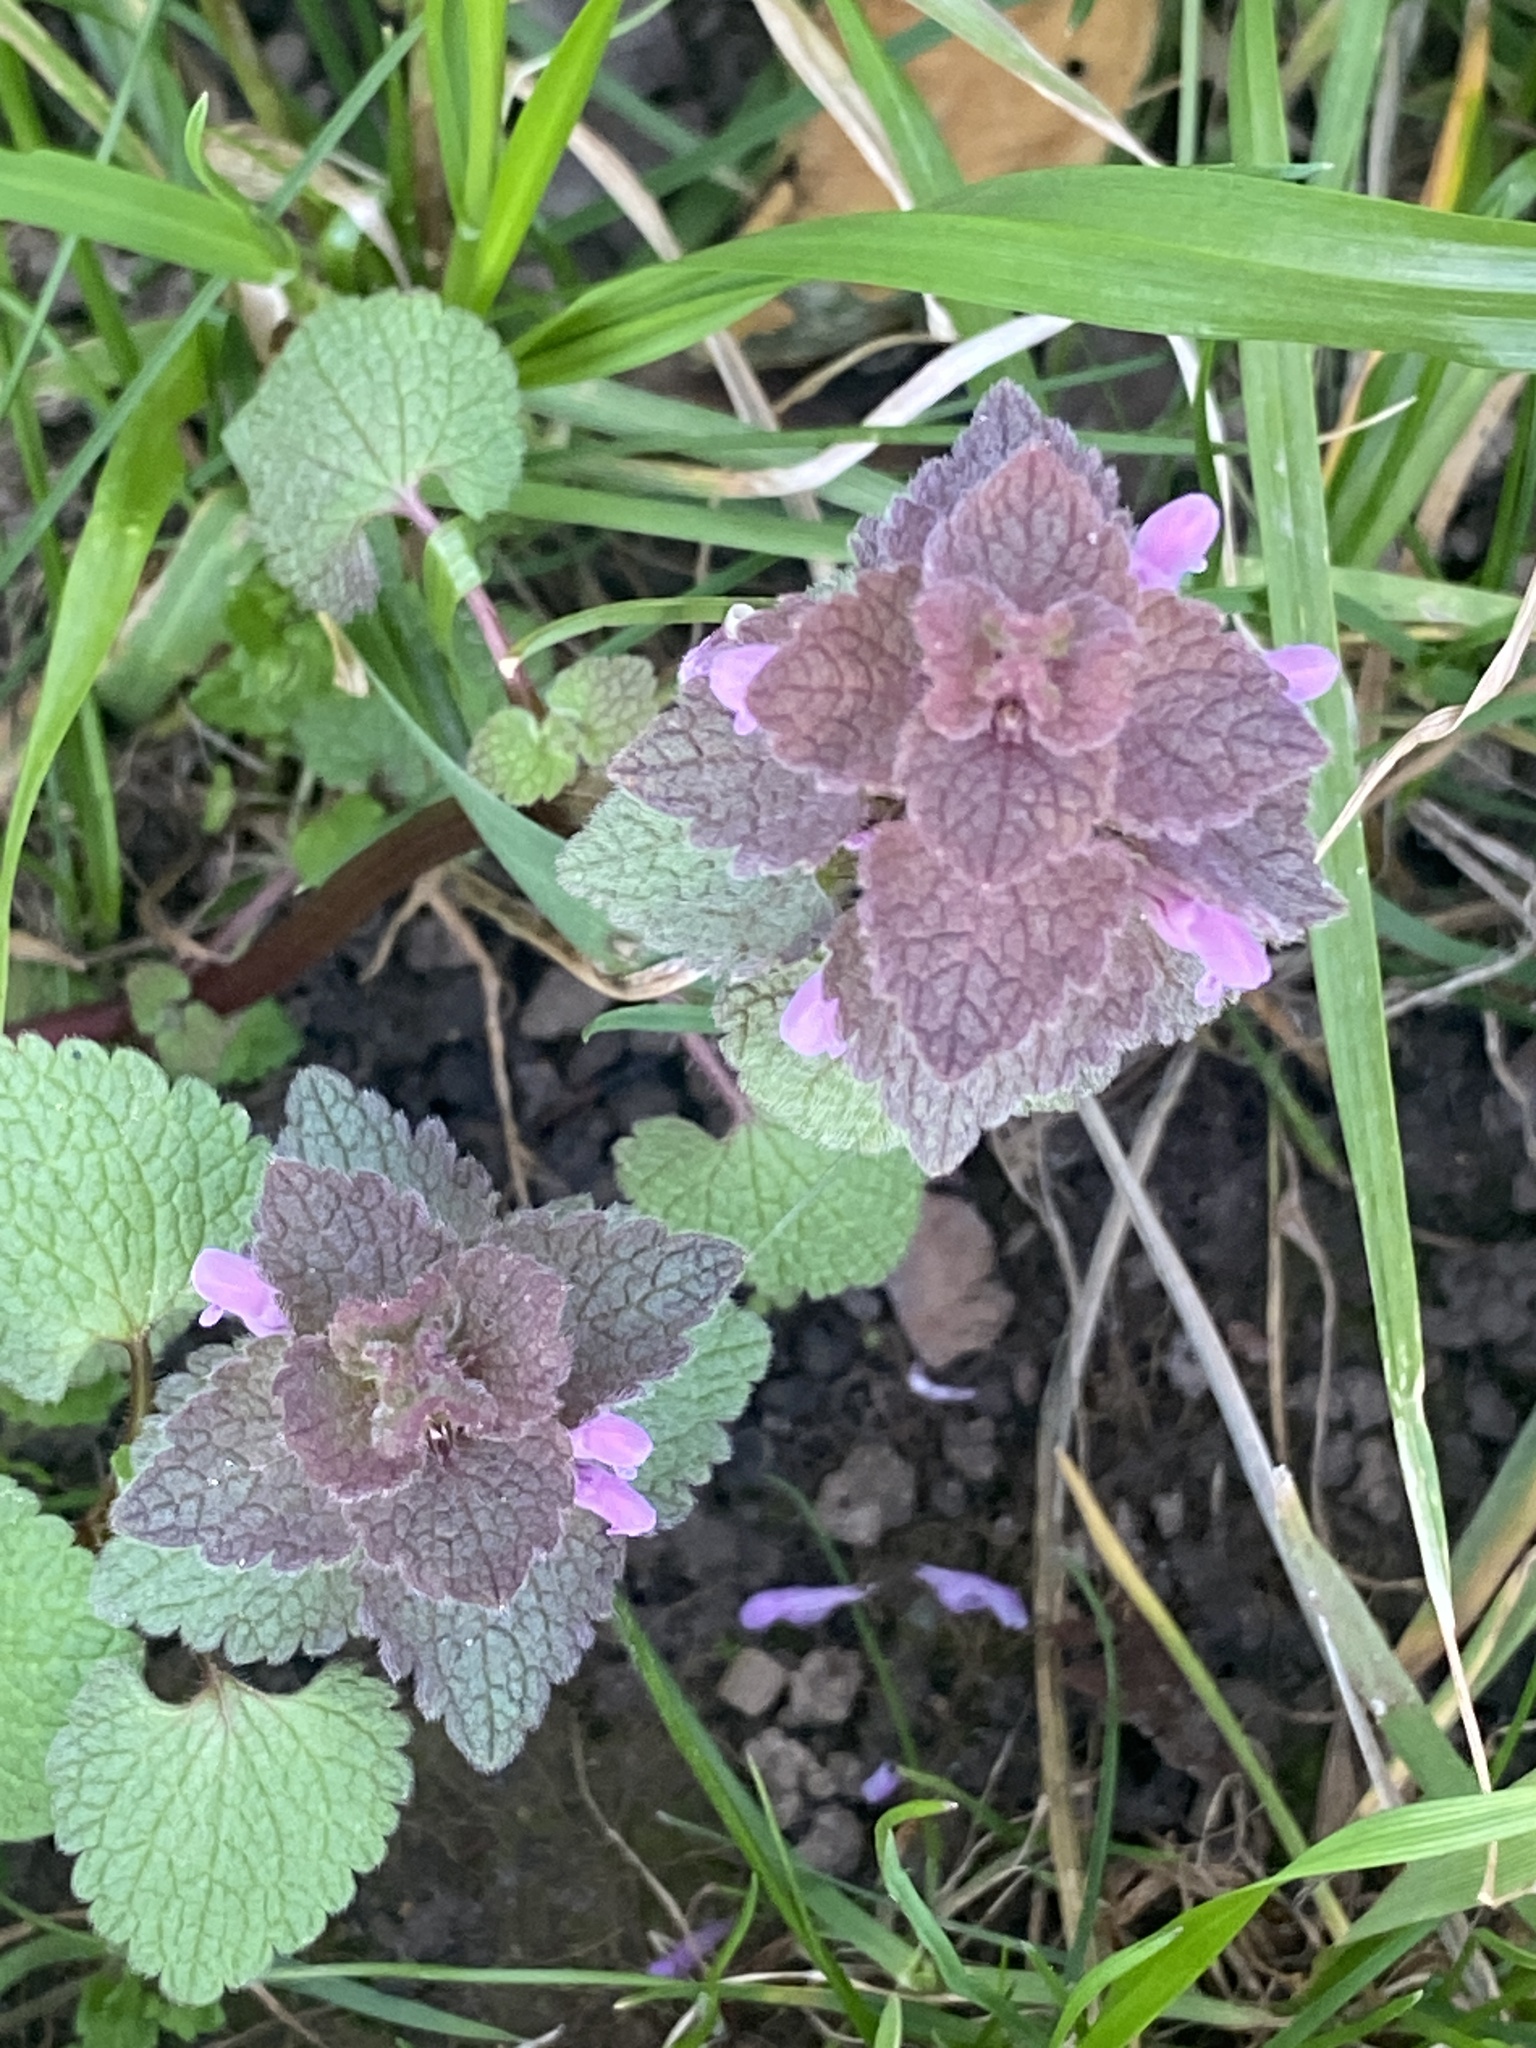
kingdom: Plantae
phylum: Tracheophyta
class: Magnoliopsida
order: Lamiales
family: Lamiaceae
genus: Lamium
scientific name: Lamium purpureum
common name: Red dead-nettle
